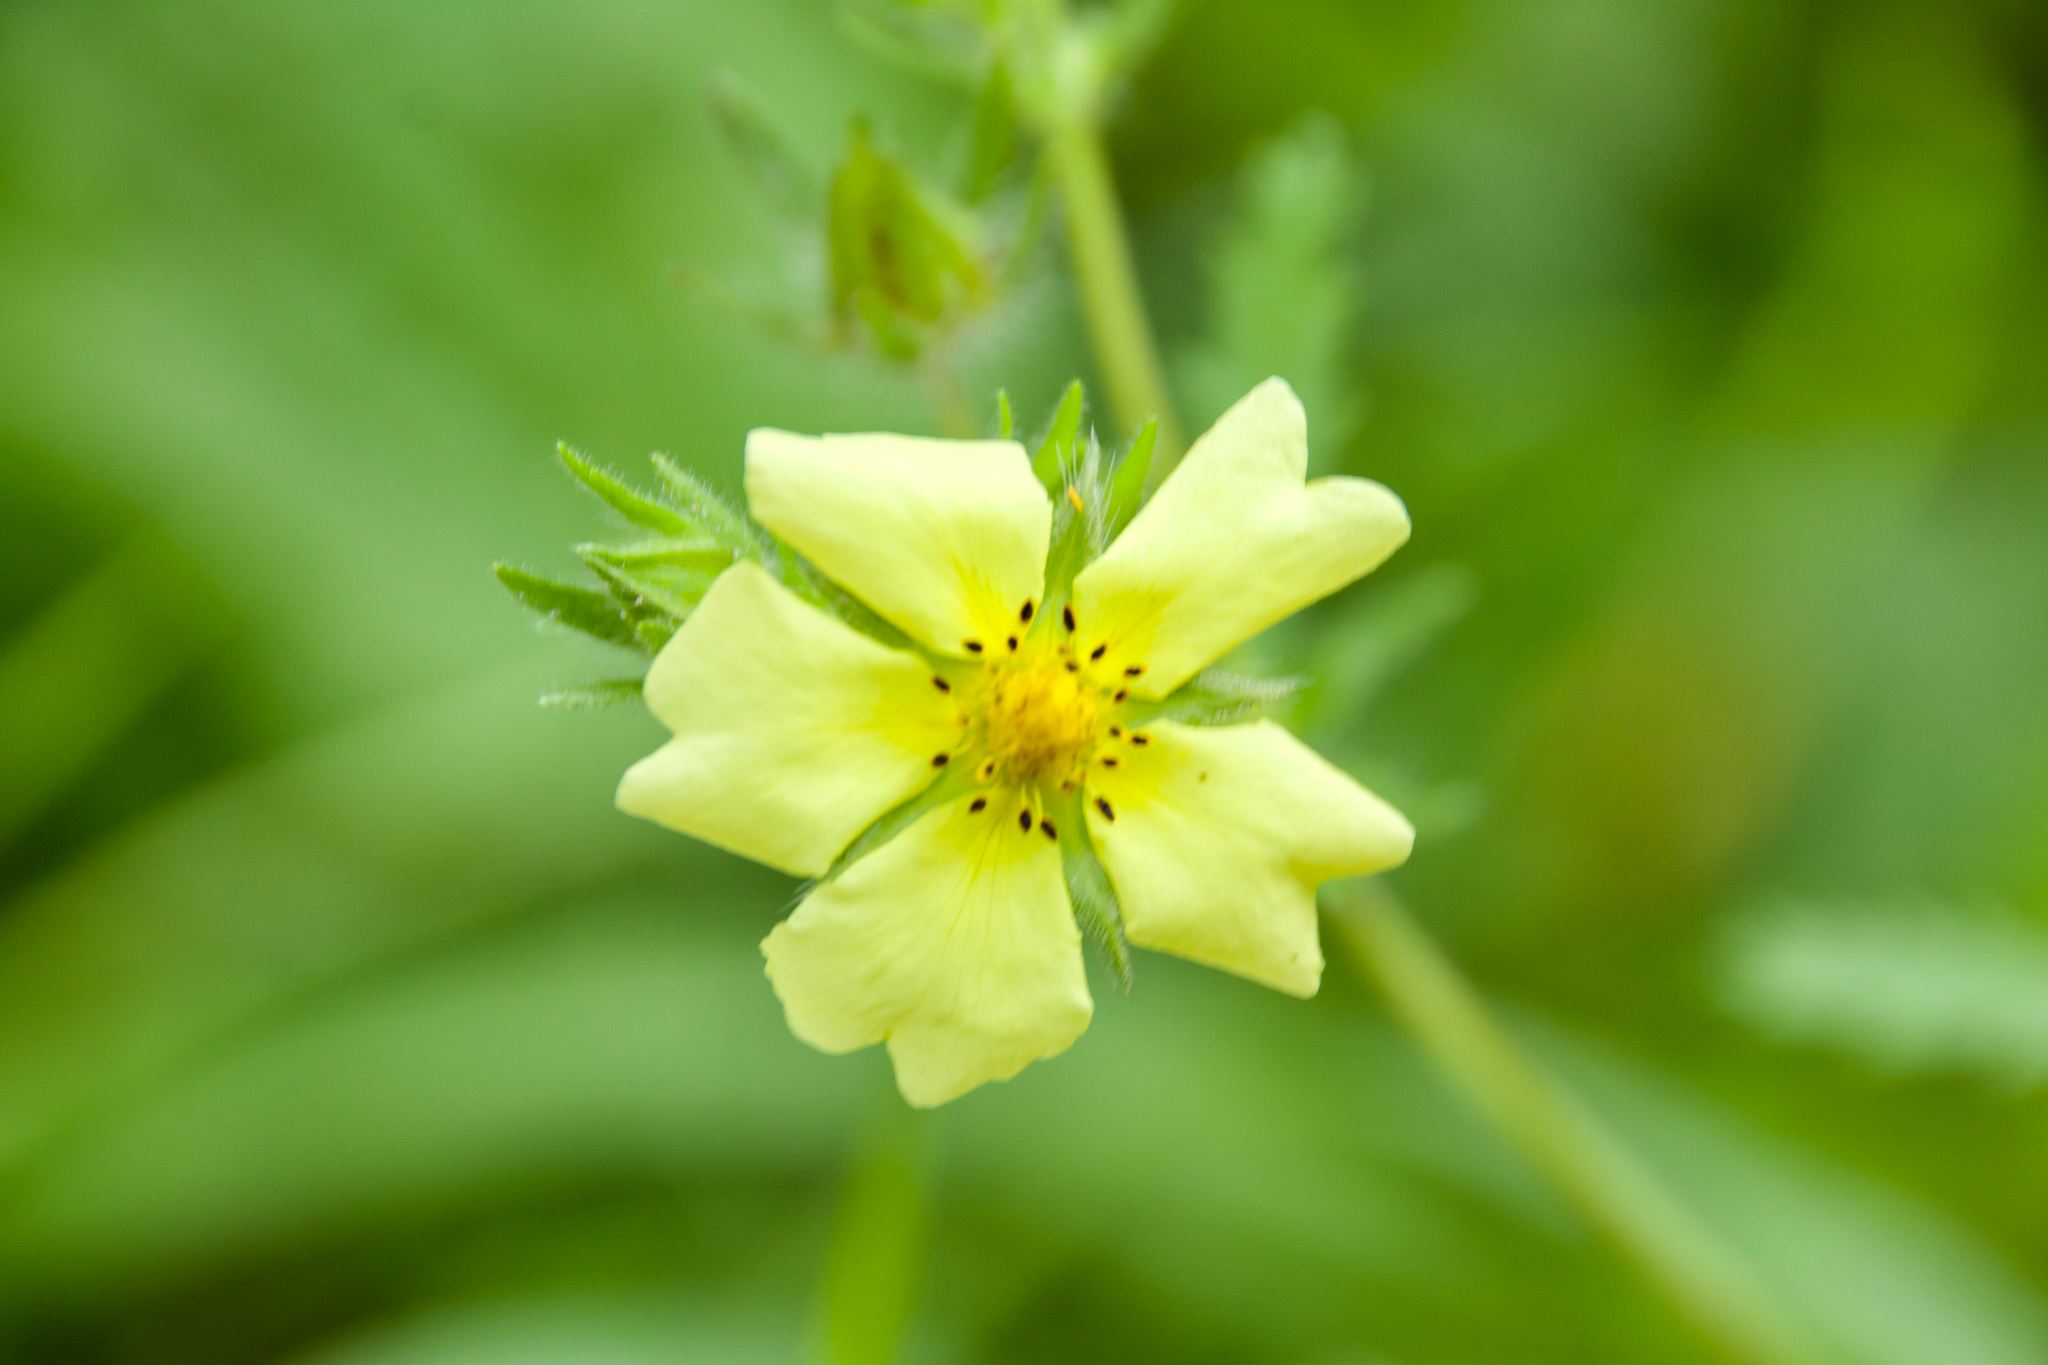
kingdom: Plantae
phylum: Tracheophyta
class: Magnoliopsida
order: Rosales
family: Rosaceae
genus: Potentilla
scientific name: Potentilla recta
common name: Sulphur cinquefoil
